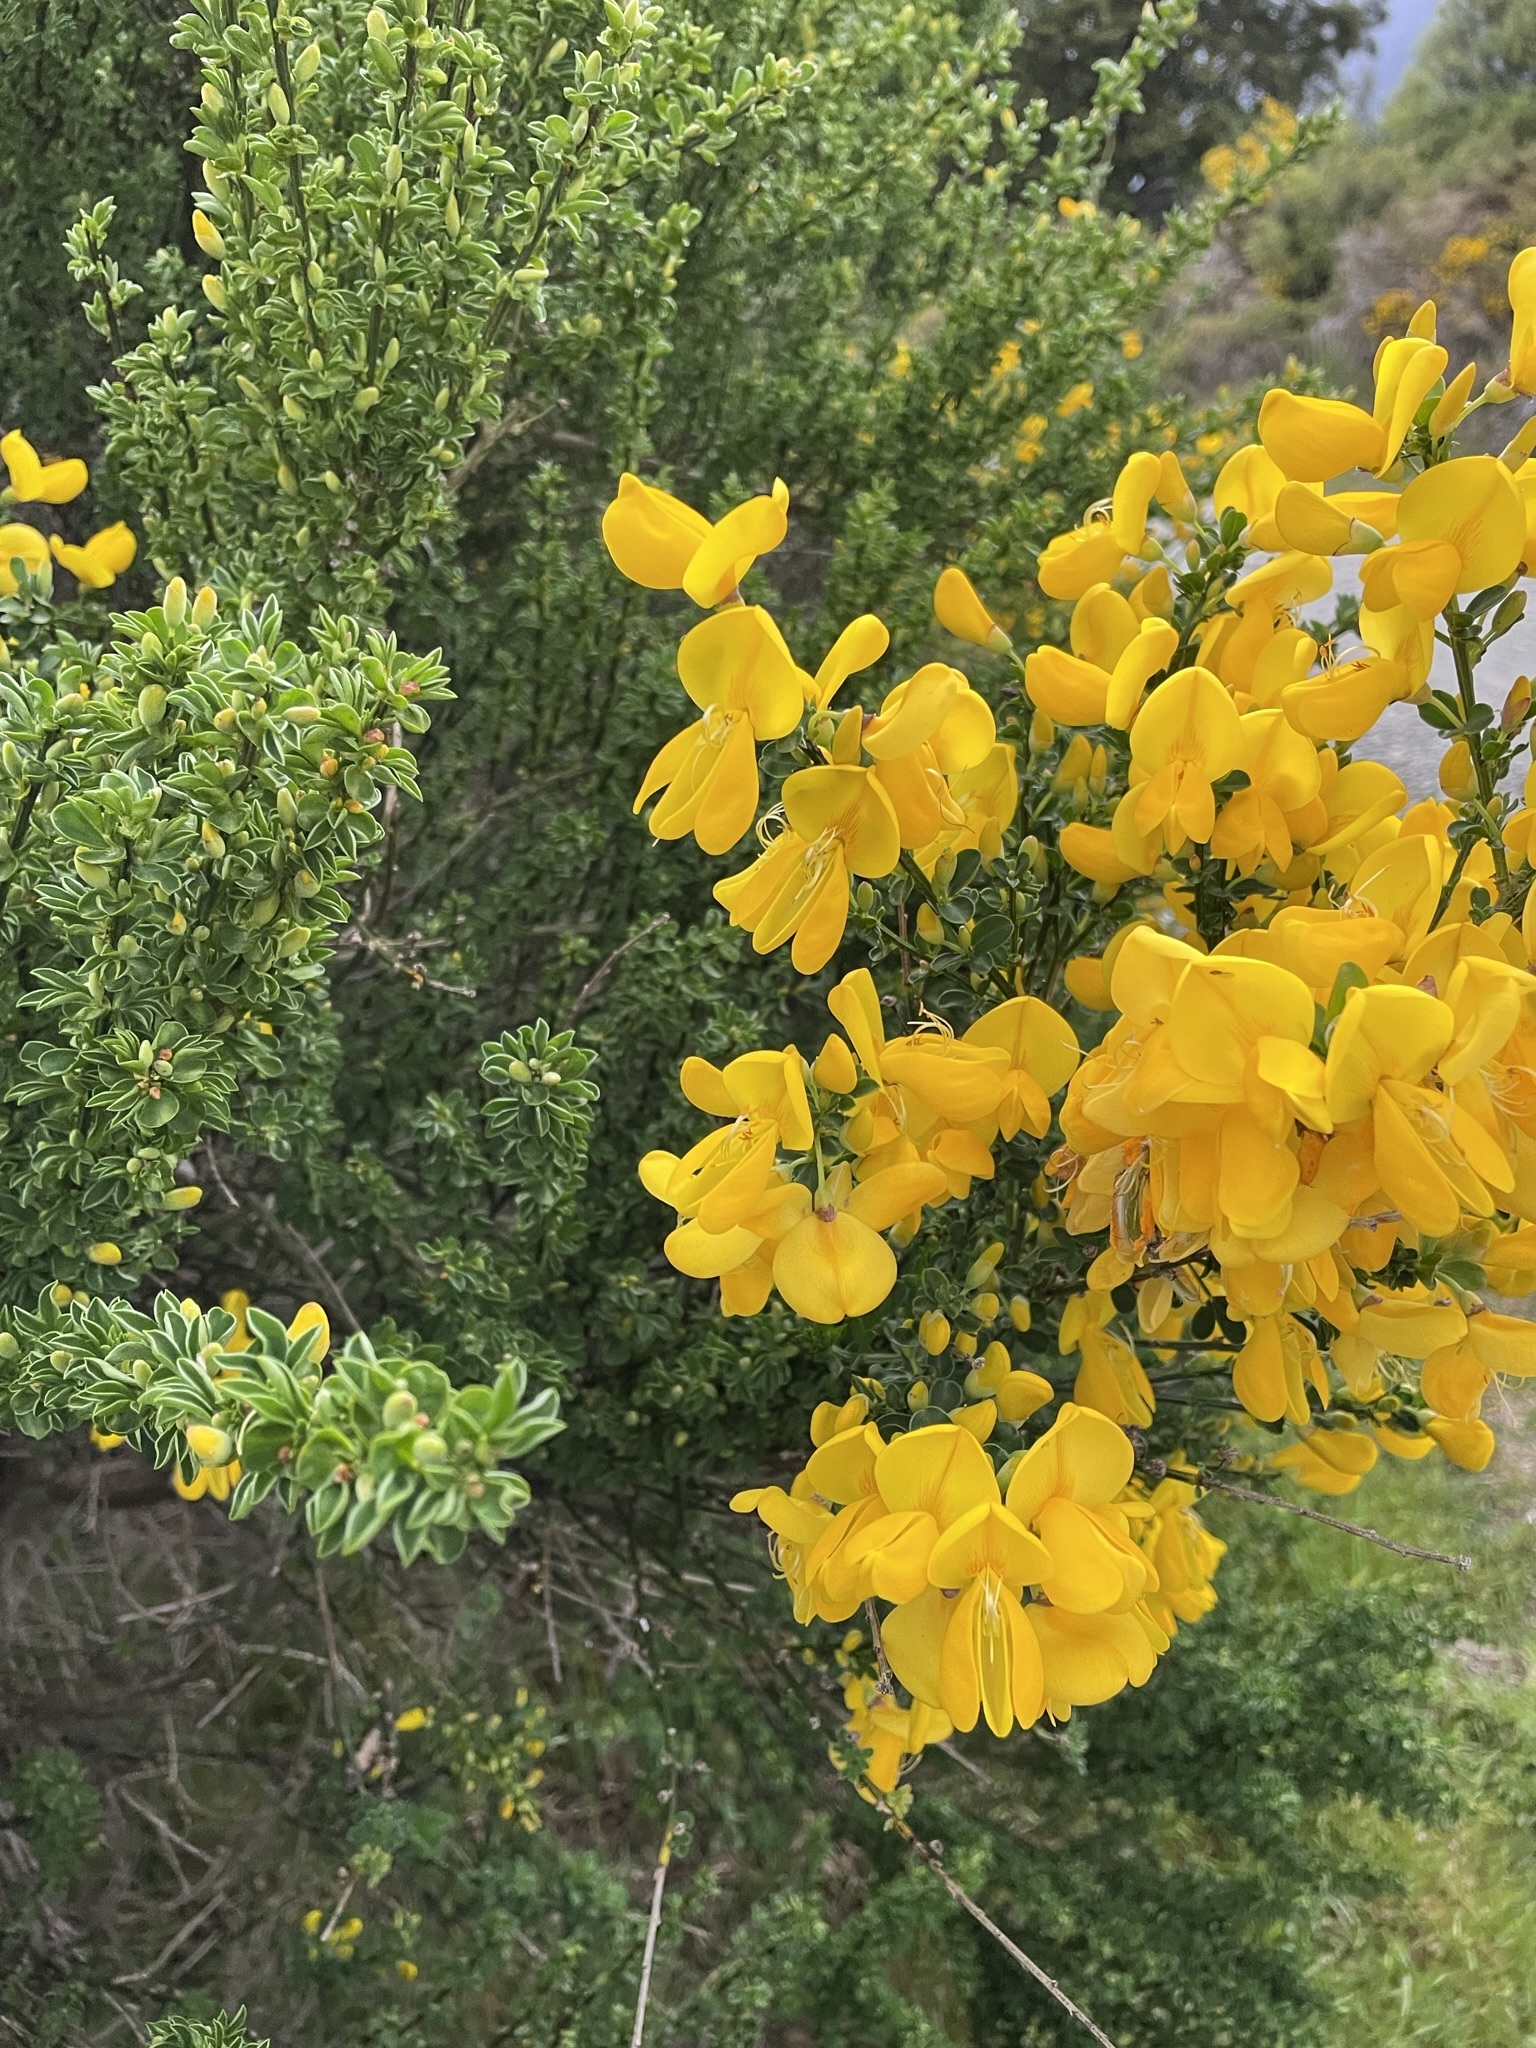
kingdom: Plantae
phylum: Tracheophyta
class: Magnoliopsida
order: Fabales
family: Fabaceae
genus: Cytisus
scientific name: Cytisus scoparius
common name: Scotch broom
